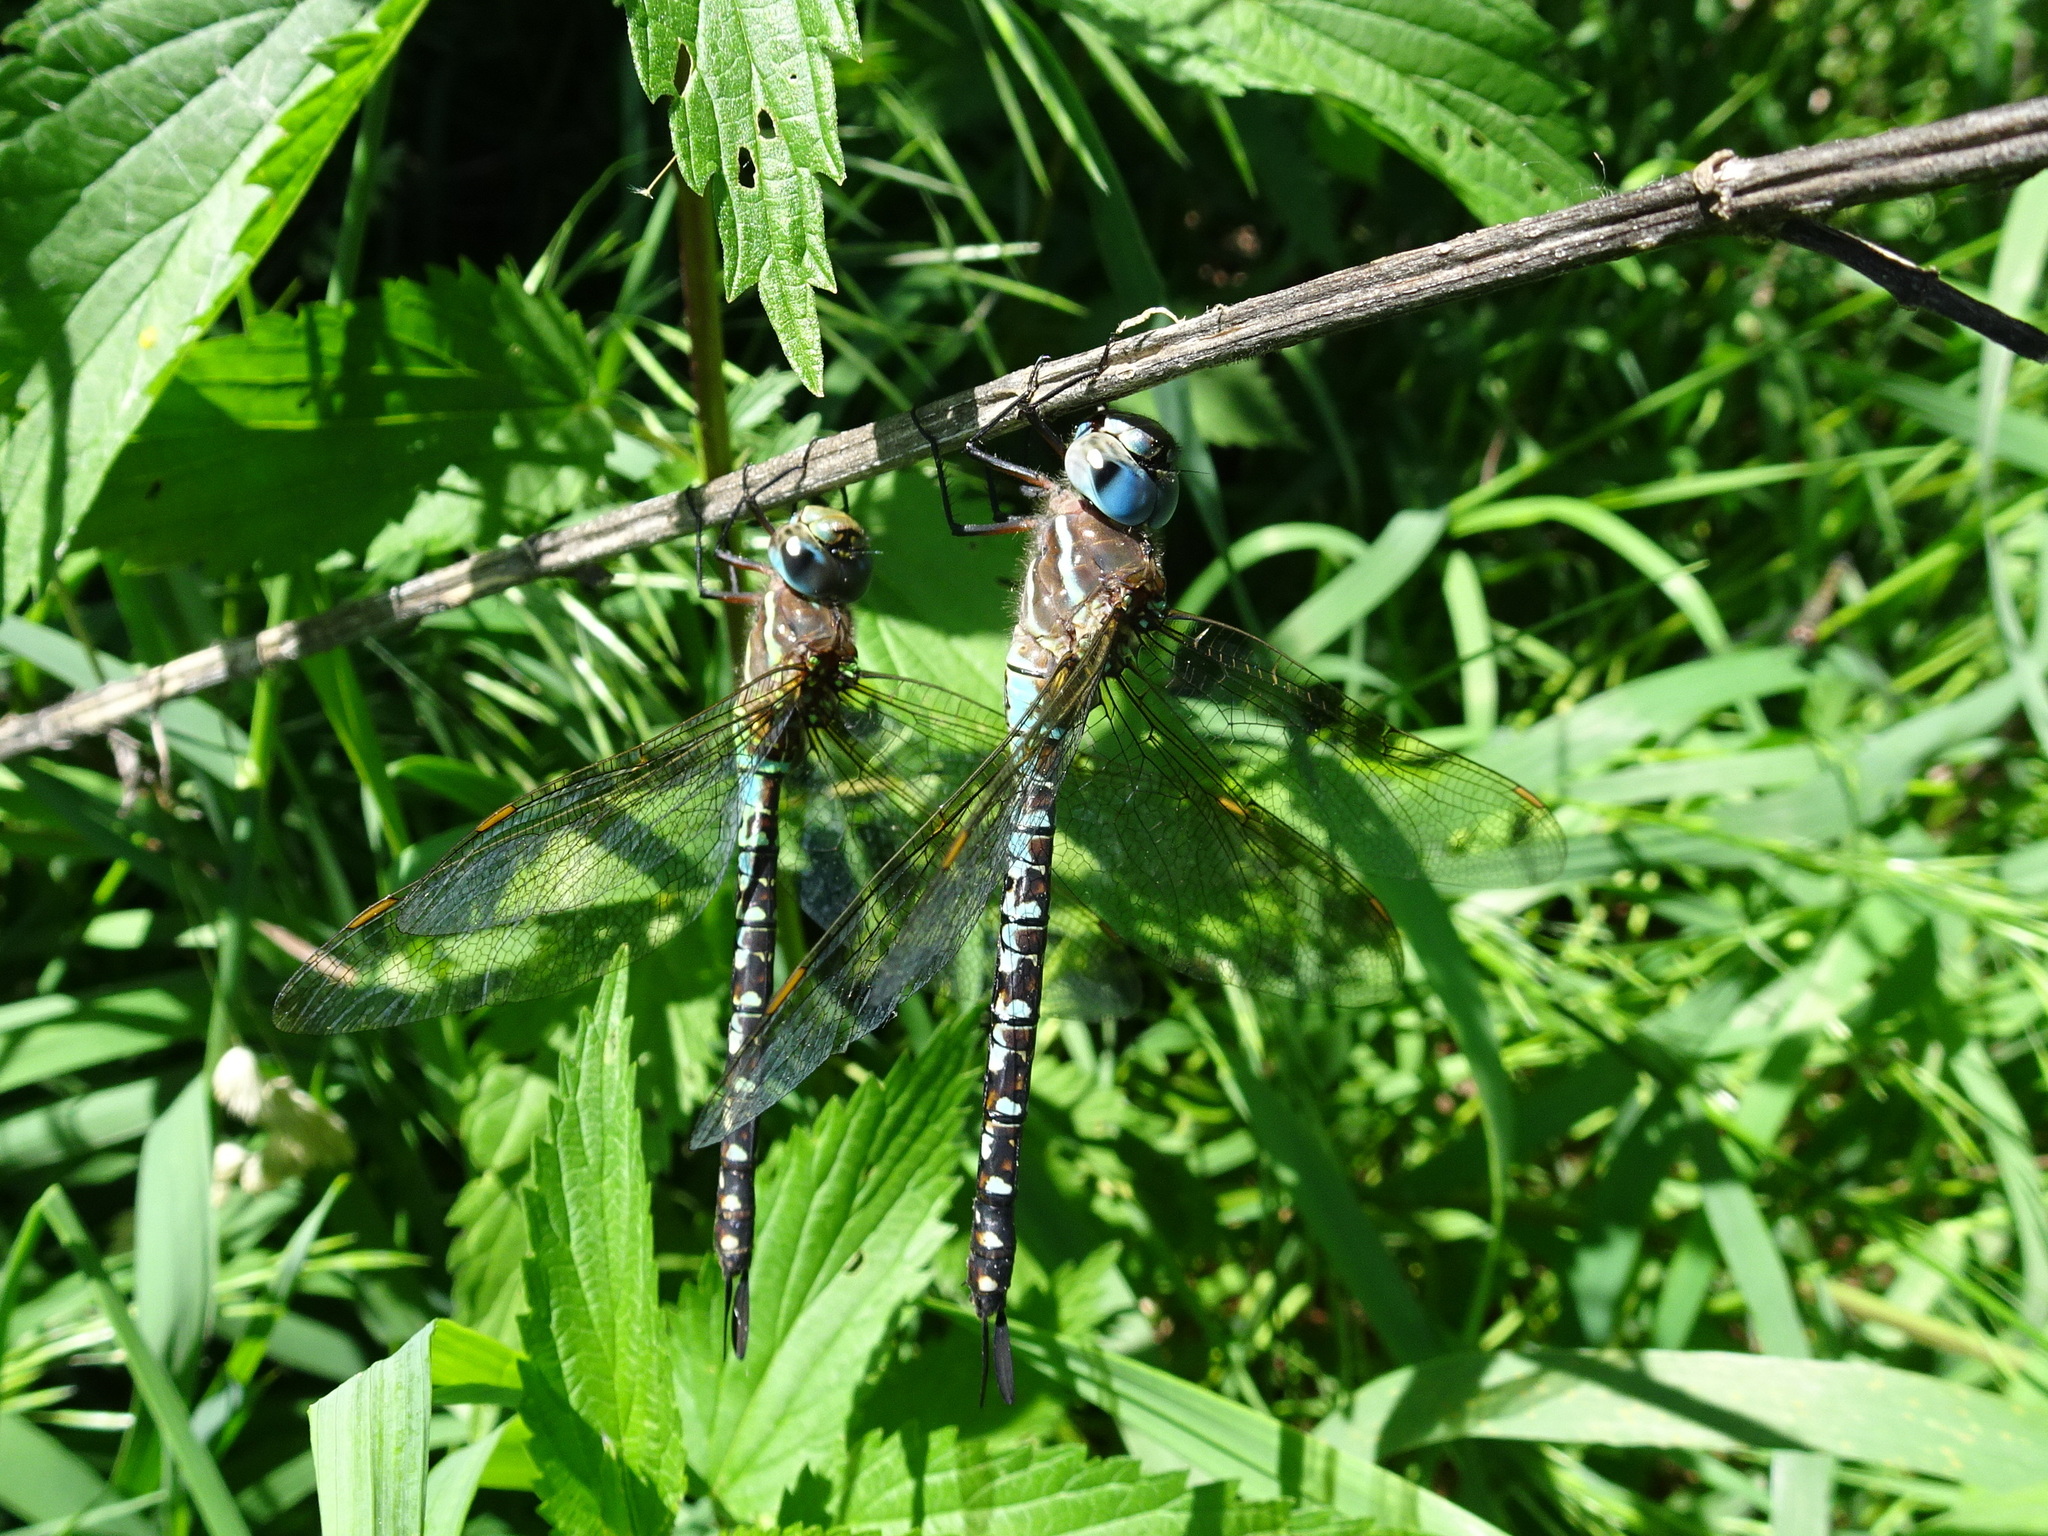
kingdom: Animalia
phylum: Arthropoda
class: Insecta
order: Odonata
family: Aeshnidae
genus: Rhionaeschna
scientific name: Rhionaeschna mutata
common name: Spatterdock darner
